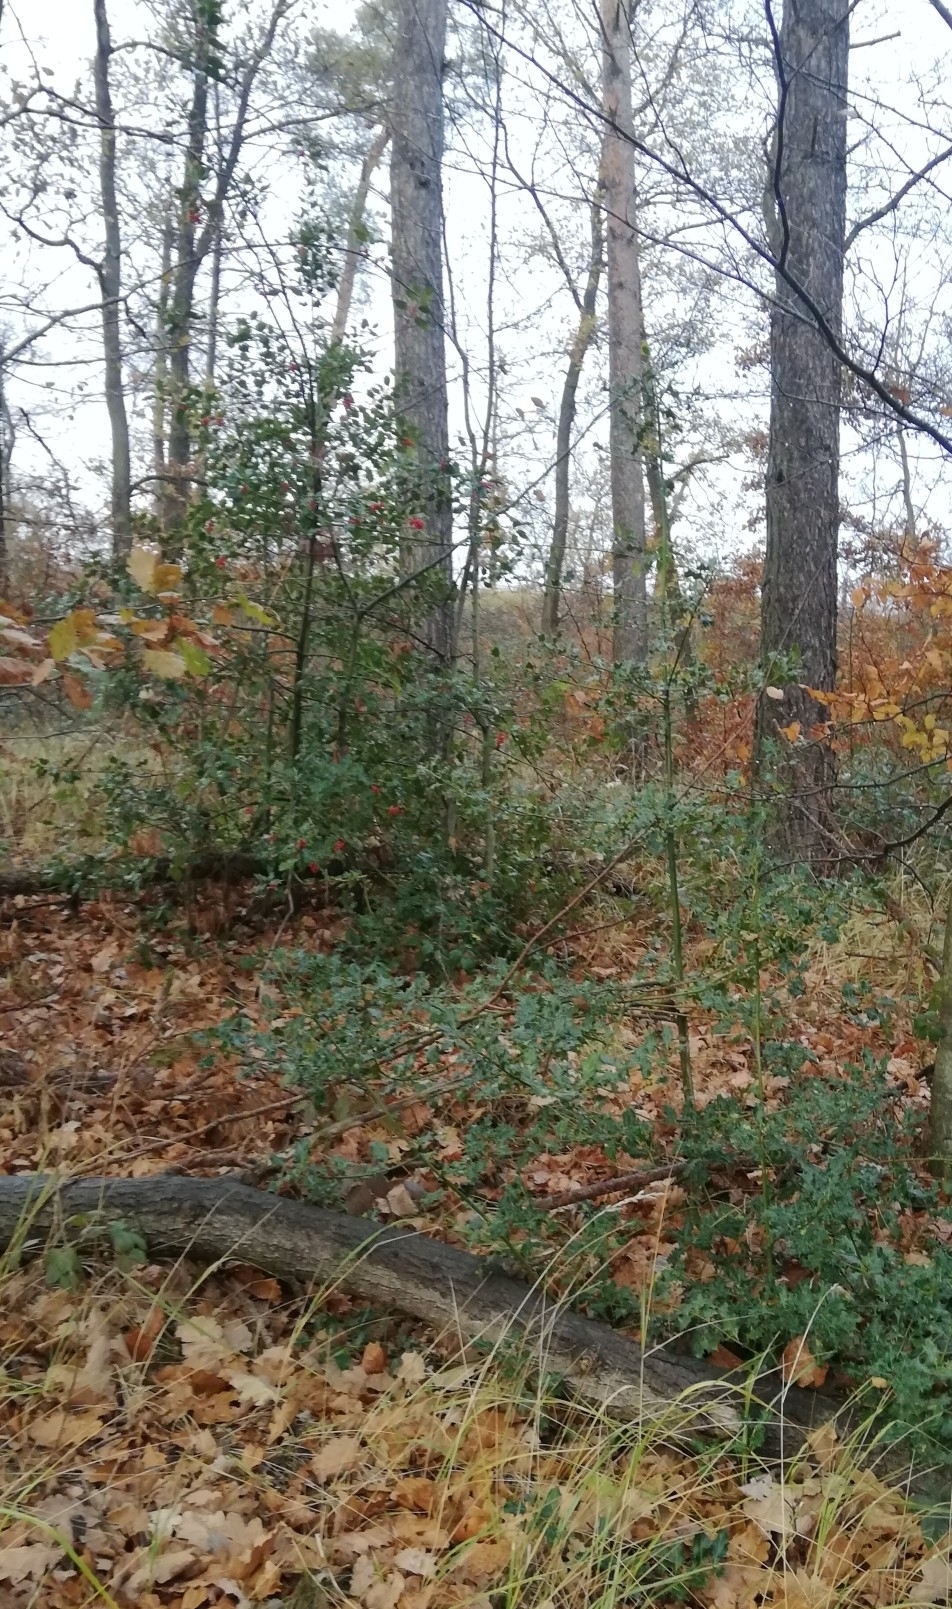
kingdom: Plantae
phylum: Tracheophyta
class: Magnoliopsida
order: Aquifoliales
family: Aquifoliaceae
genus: Ilex
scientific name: Ilex aquifolium
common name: English holly
